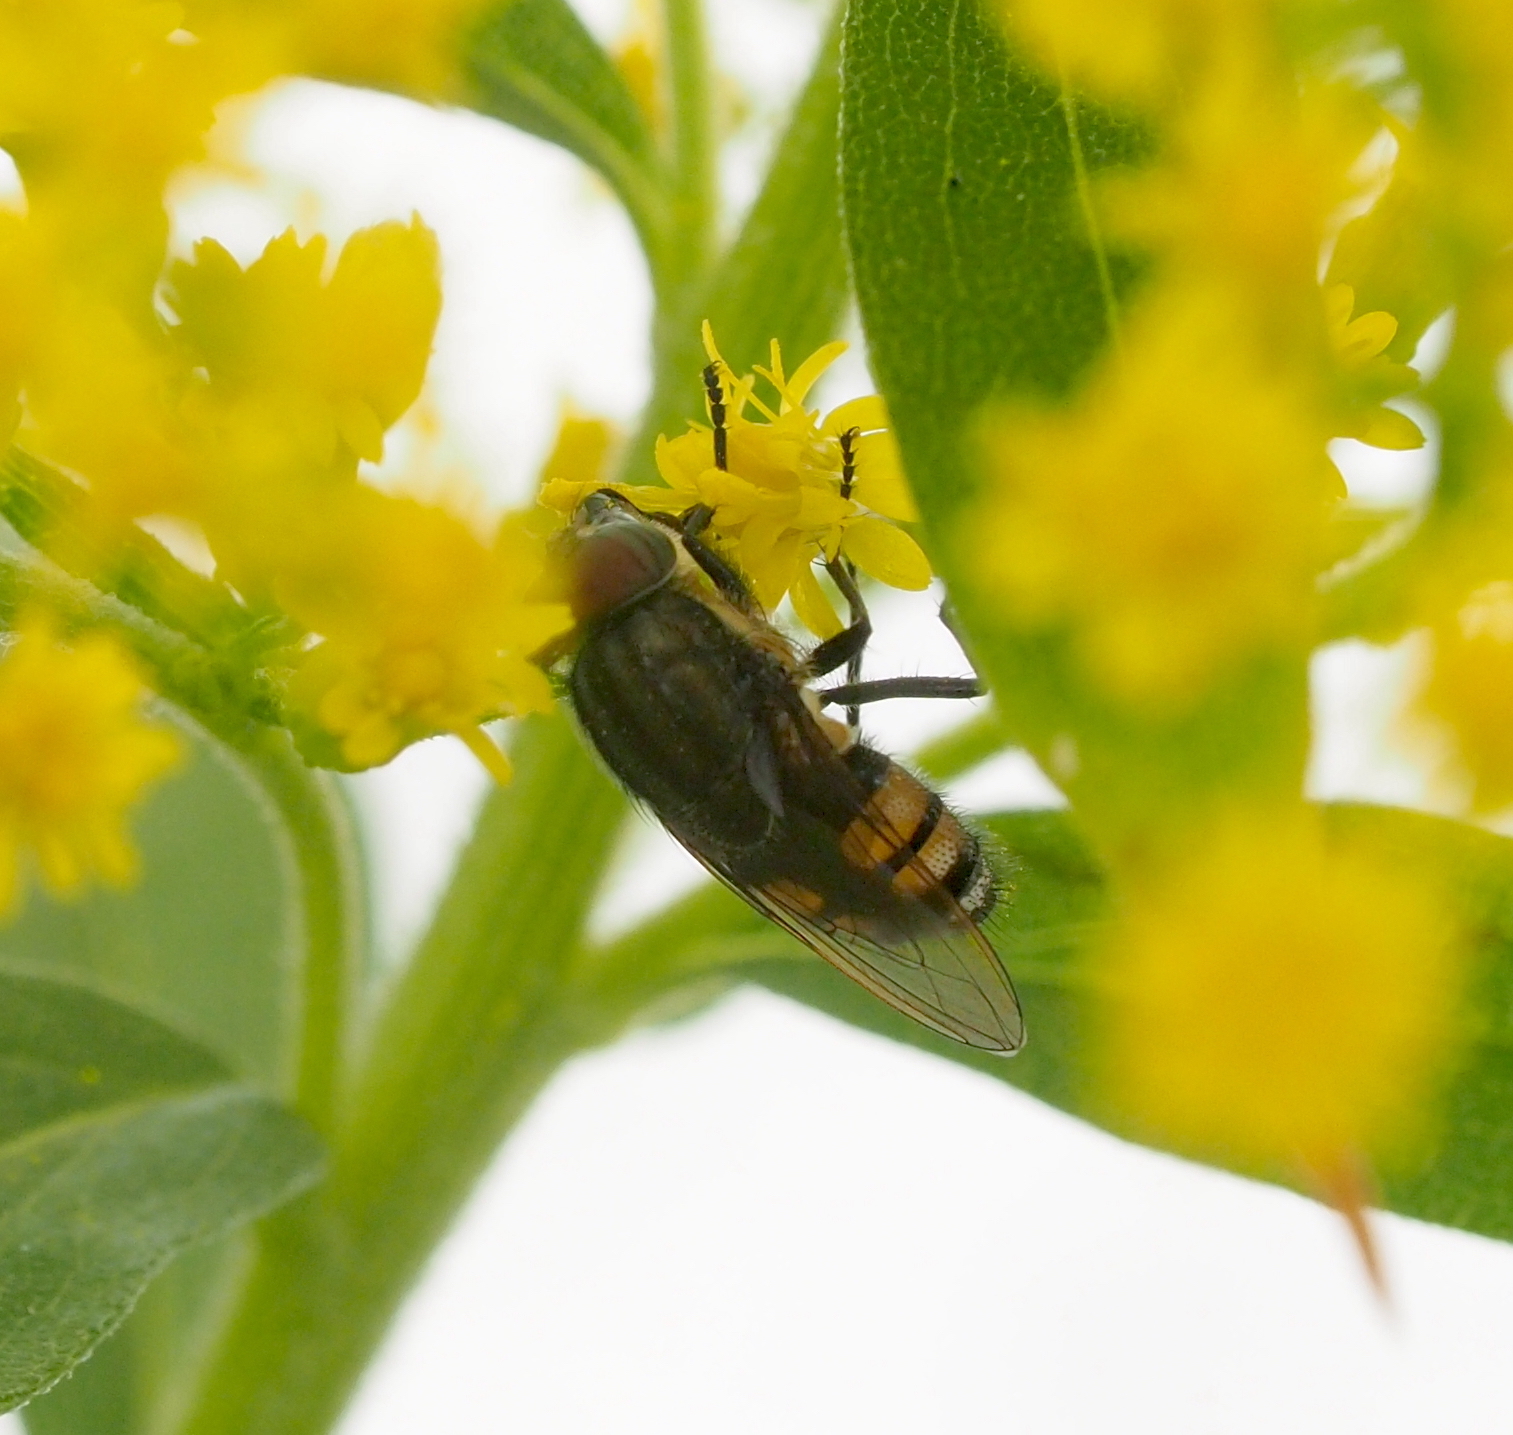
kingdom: Animalia
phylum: Arthropoda
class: Insecta
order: Diptera
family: Calliphoridae
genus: Stomorhina
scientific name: Stomorhina lunata
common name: Locust blowfly
